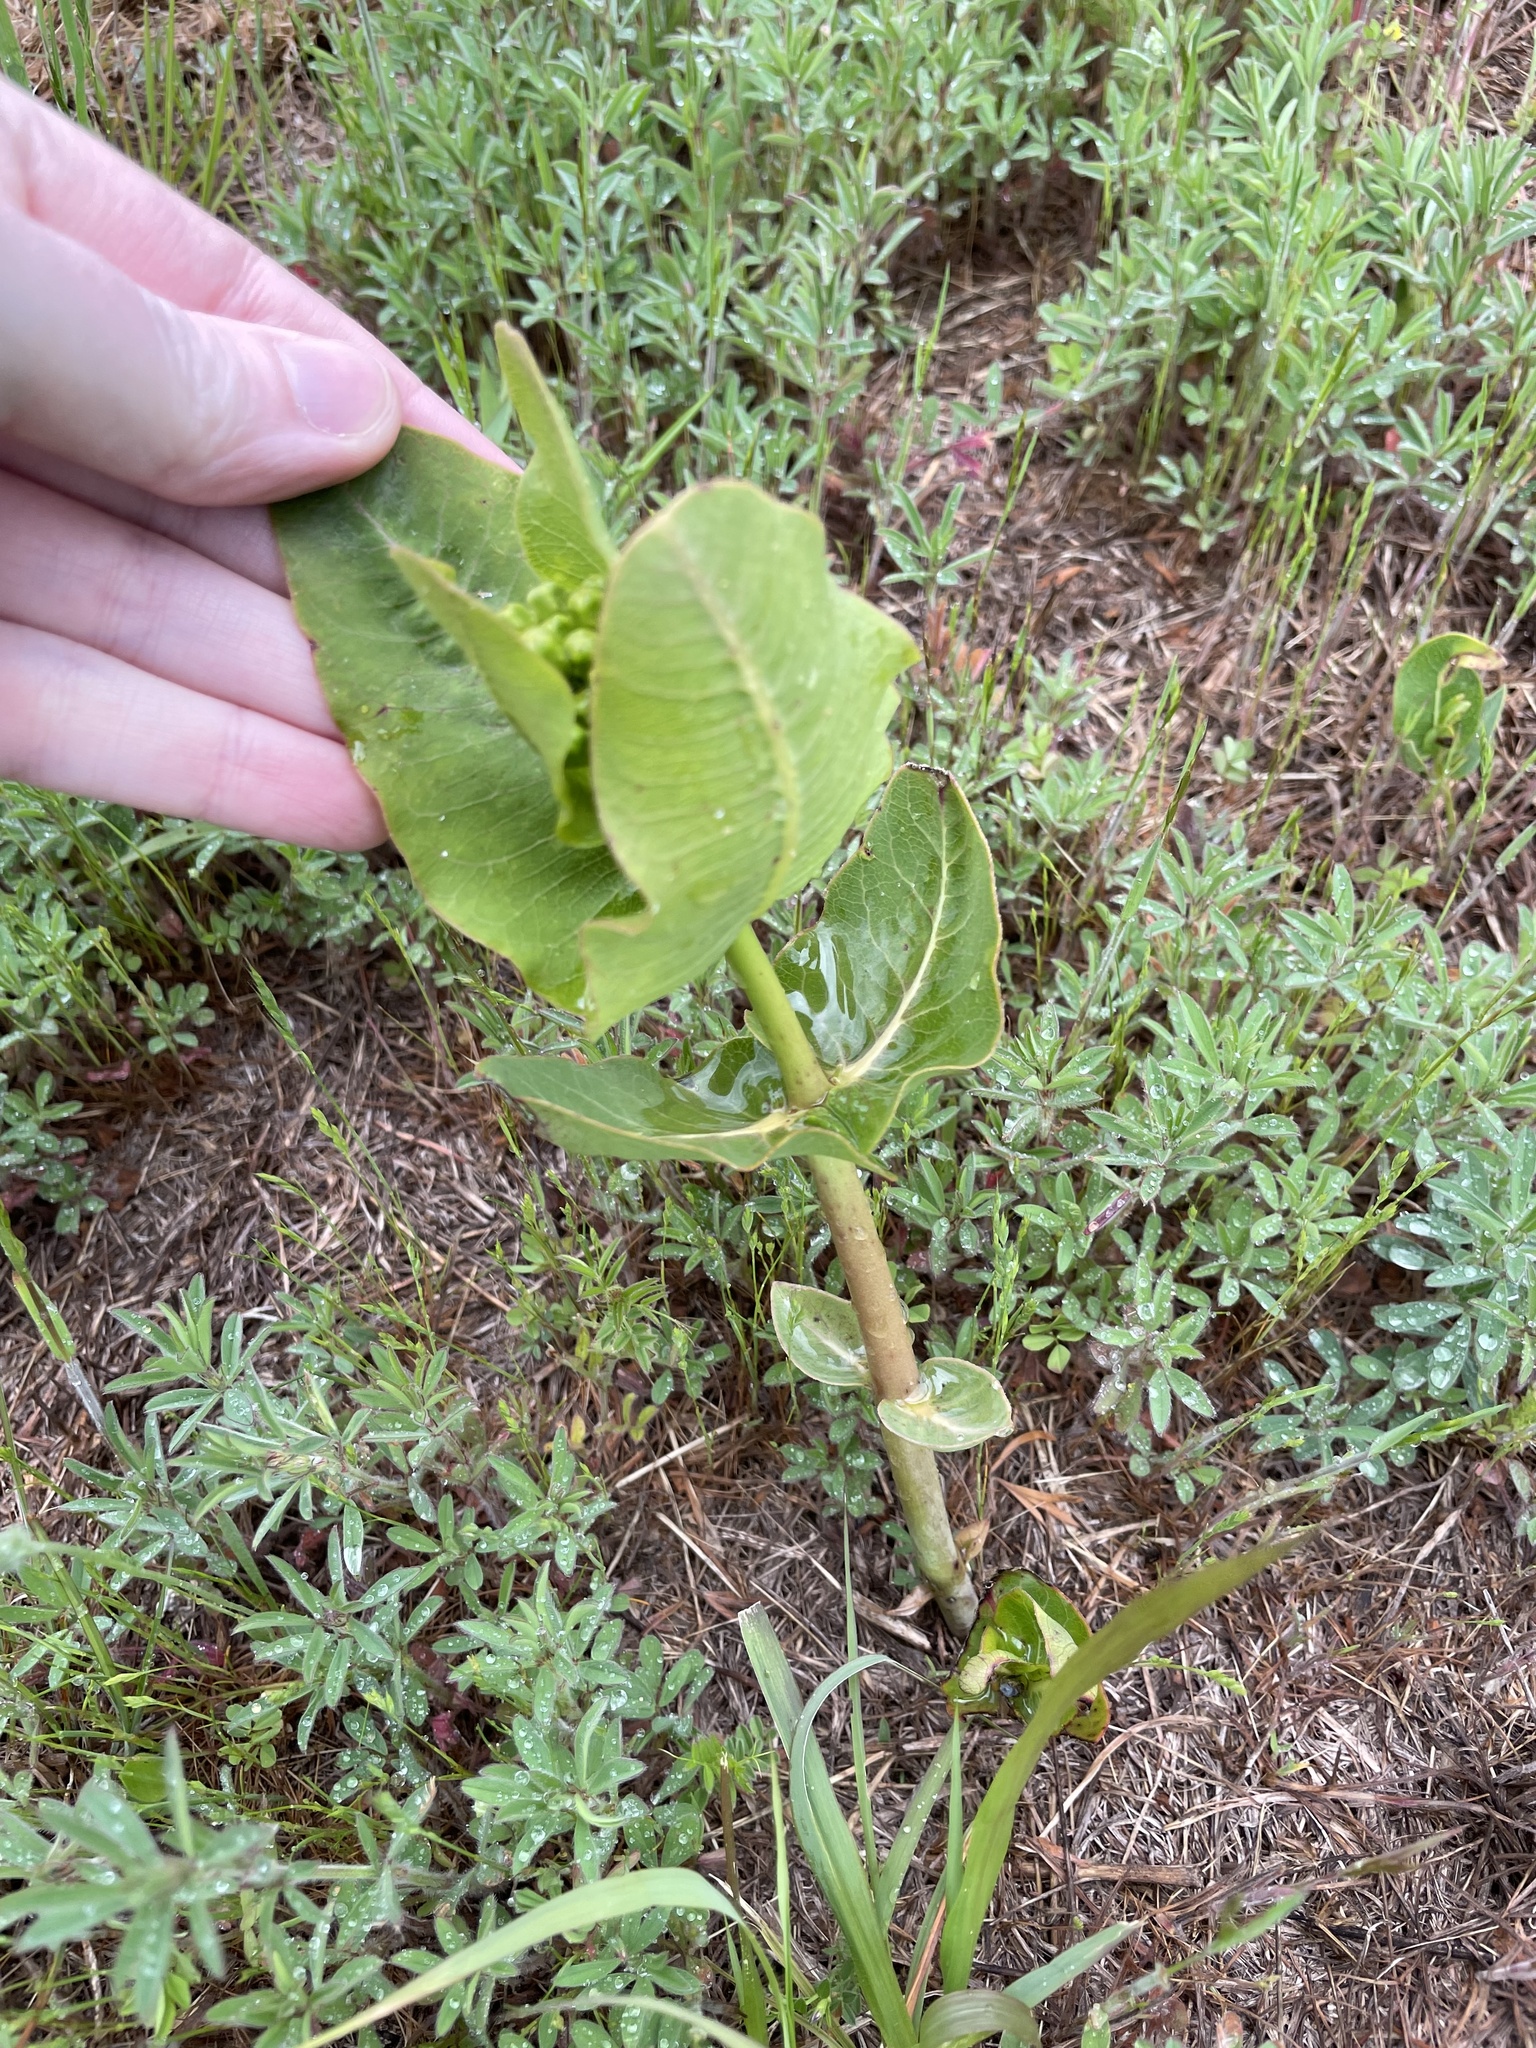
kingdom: Plantae
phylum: Tracheophyta
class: Magnoliopsida
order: Gentianales
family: Apocynaceae
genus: Asclepias
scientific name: Asclepias amplexicaulis
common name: Blunt-leaf milkweed
